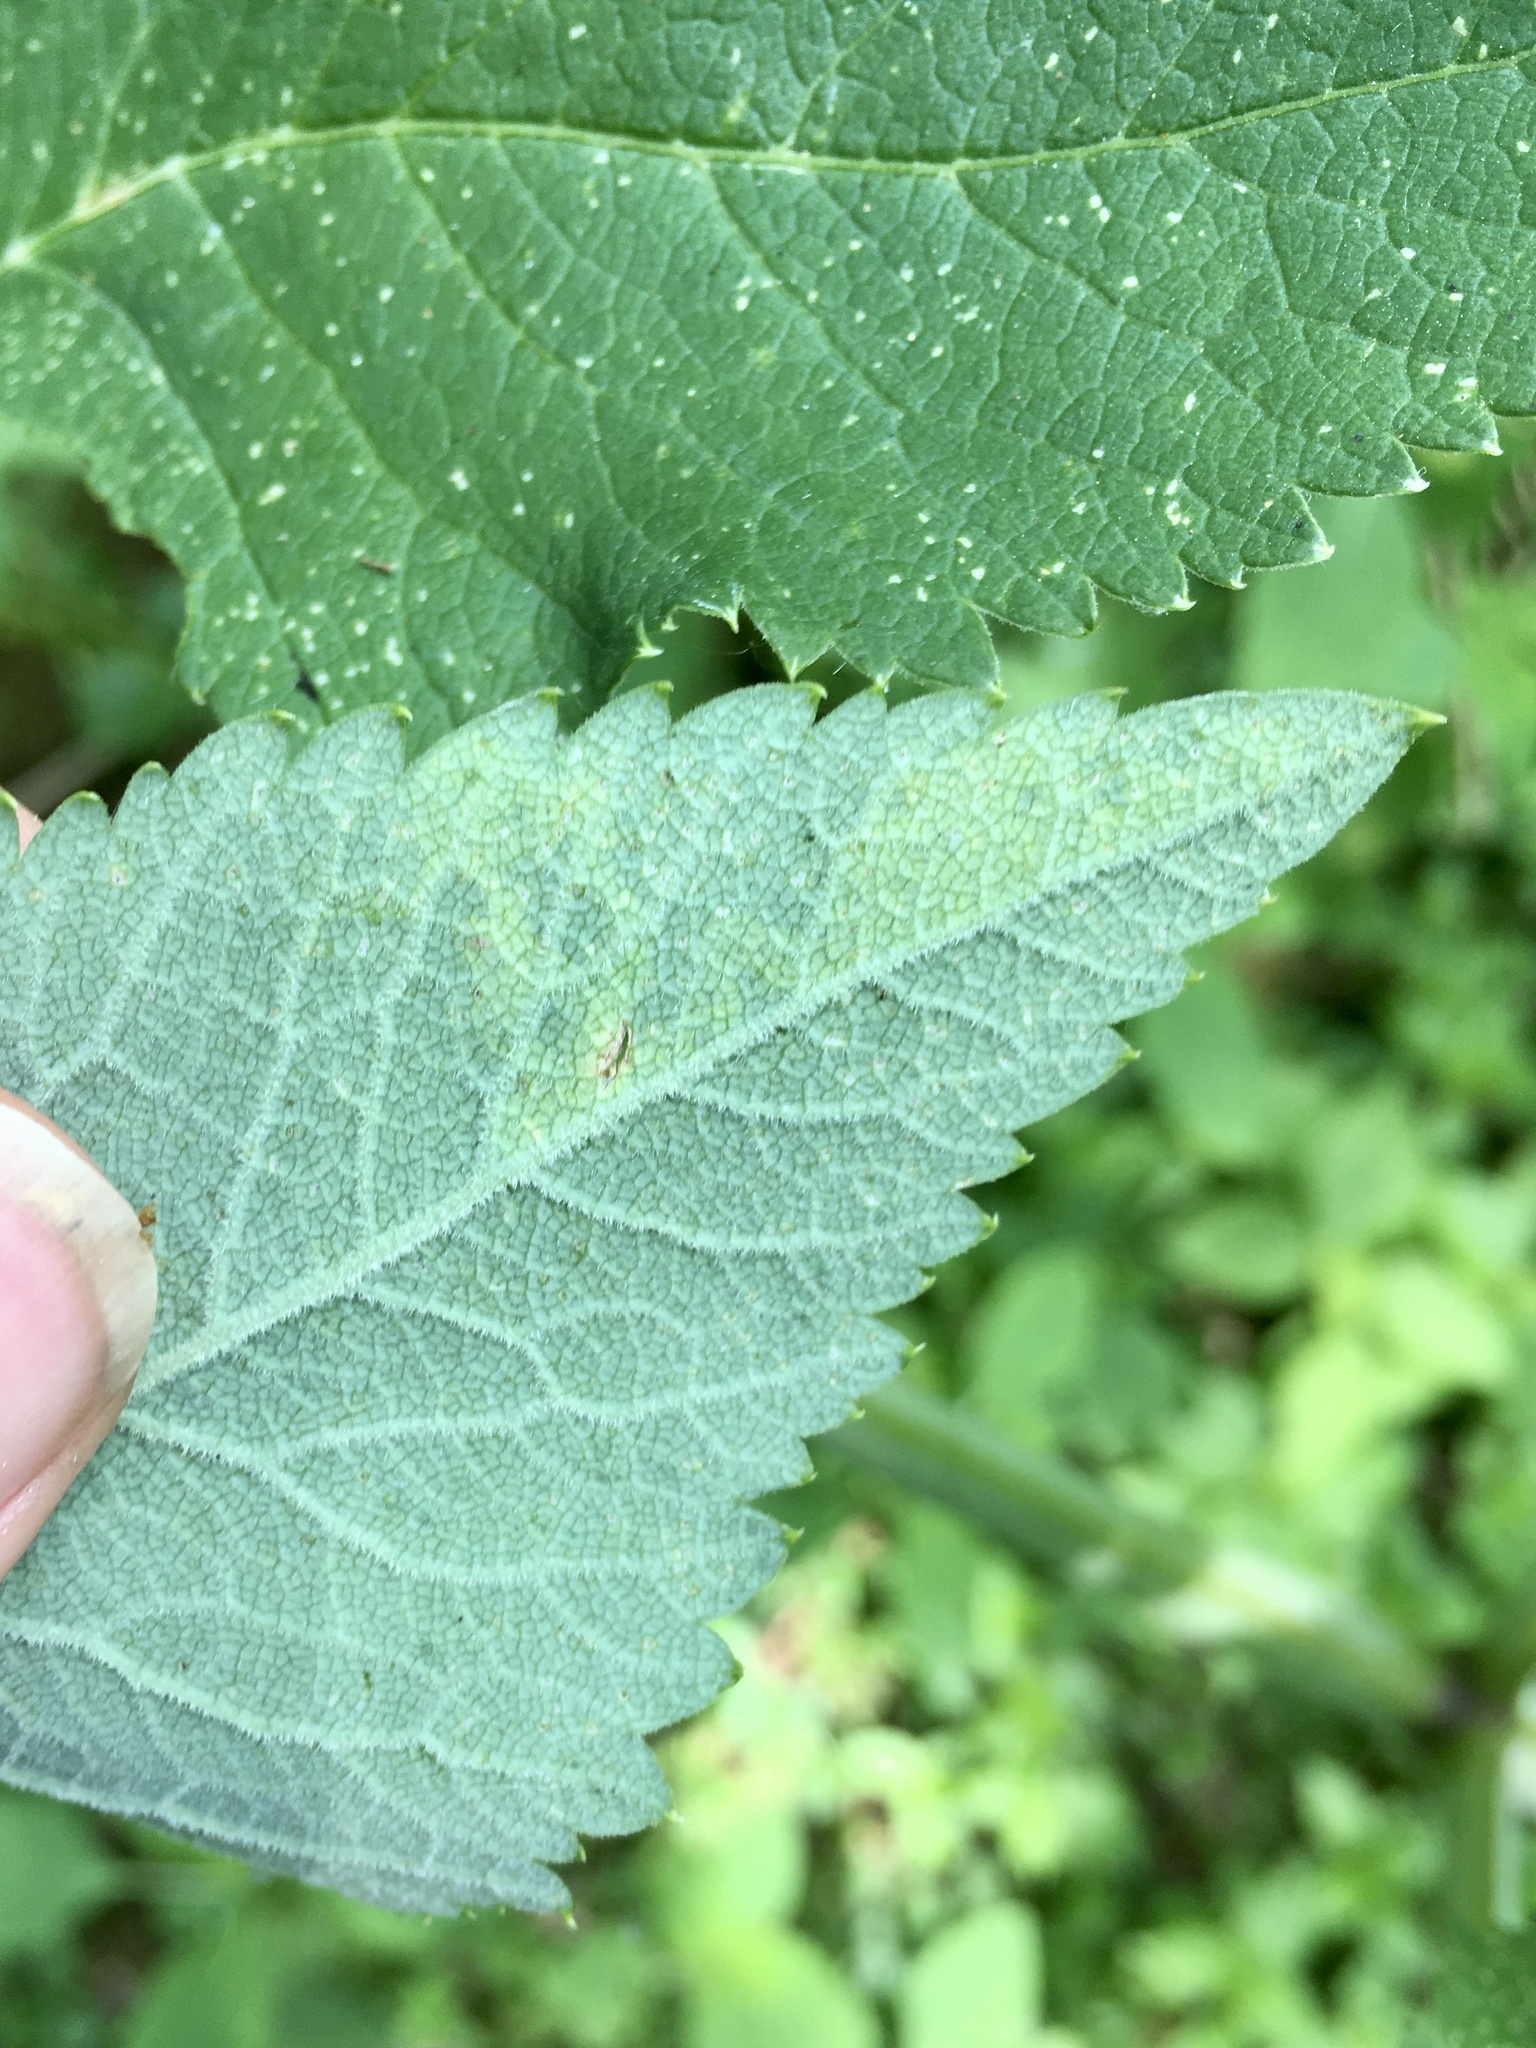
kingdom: Animalia
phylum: Arthropoda
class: Insecta
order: Diptera
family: Agromyzidae
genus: Phytomyza
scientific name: Phytomyza pastinacae
